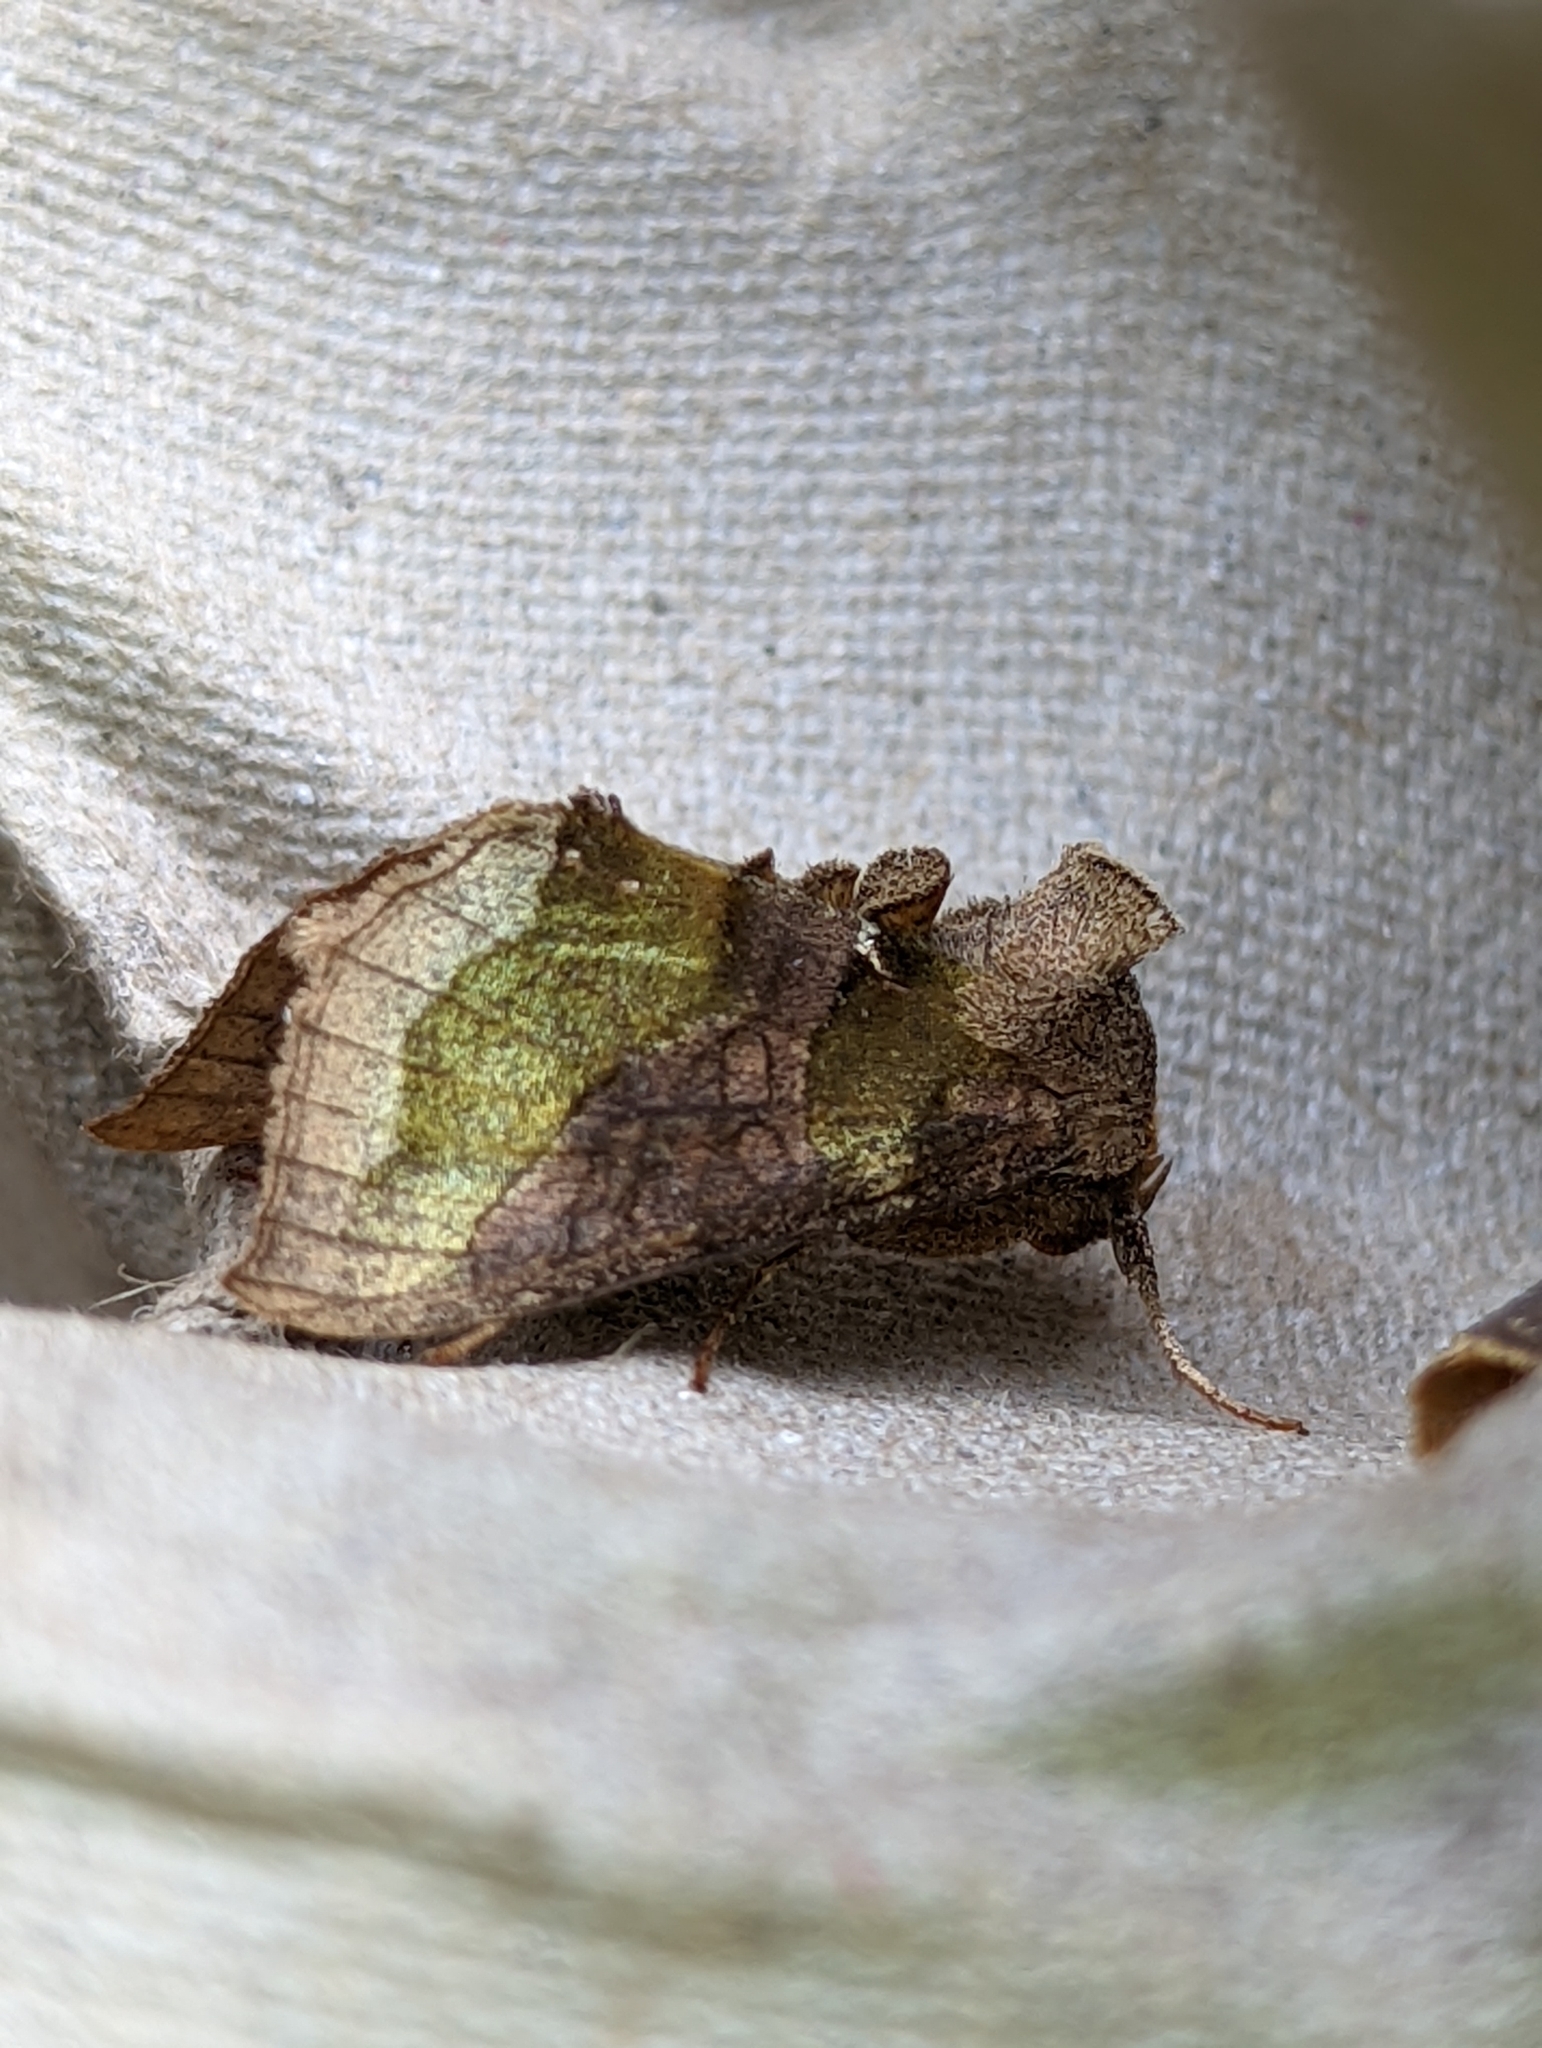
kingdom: Animalia
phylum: Arthropoda
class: Insecta
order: Lepidoptera
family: Noctuidae
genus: Diachrysia
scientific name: Diachrysia chrysitis
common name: Burnished brass
